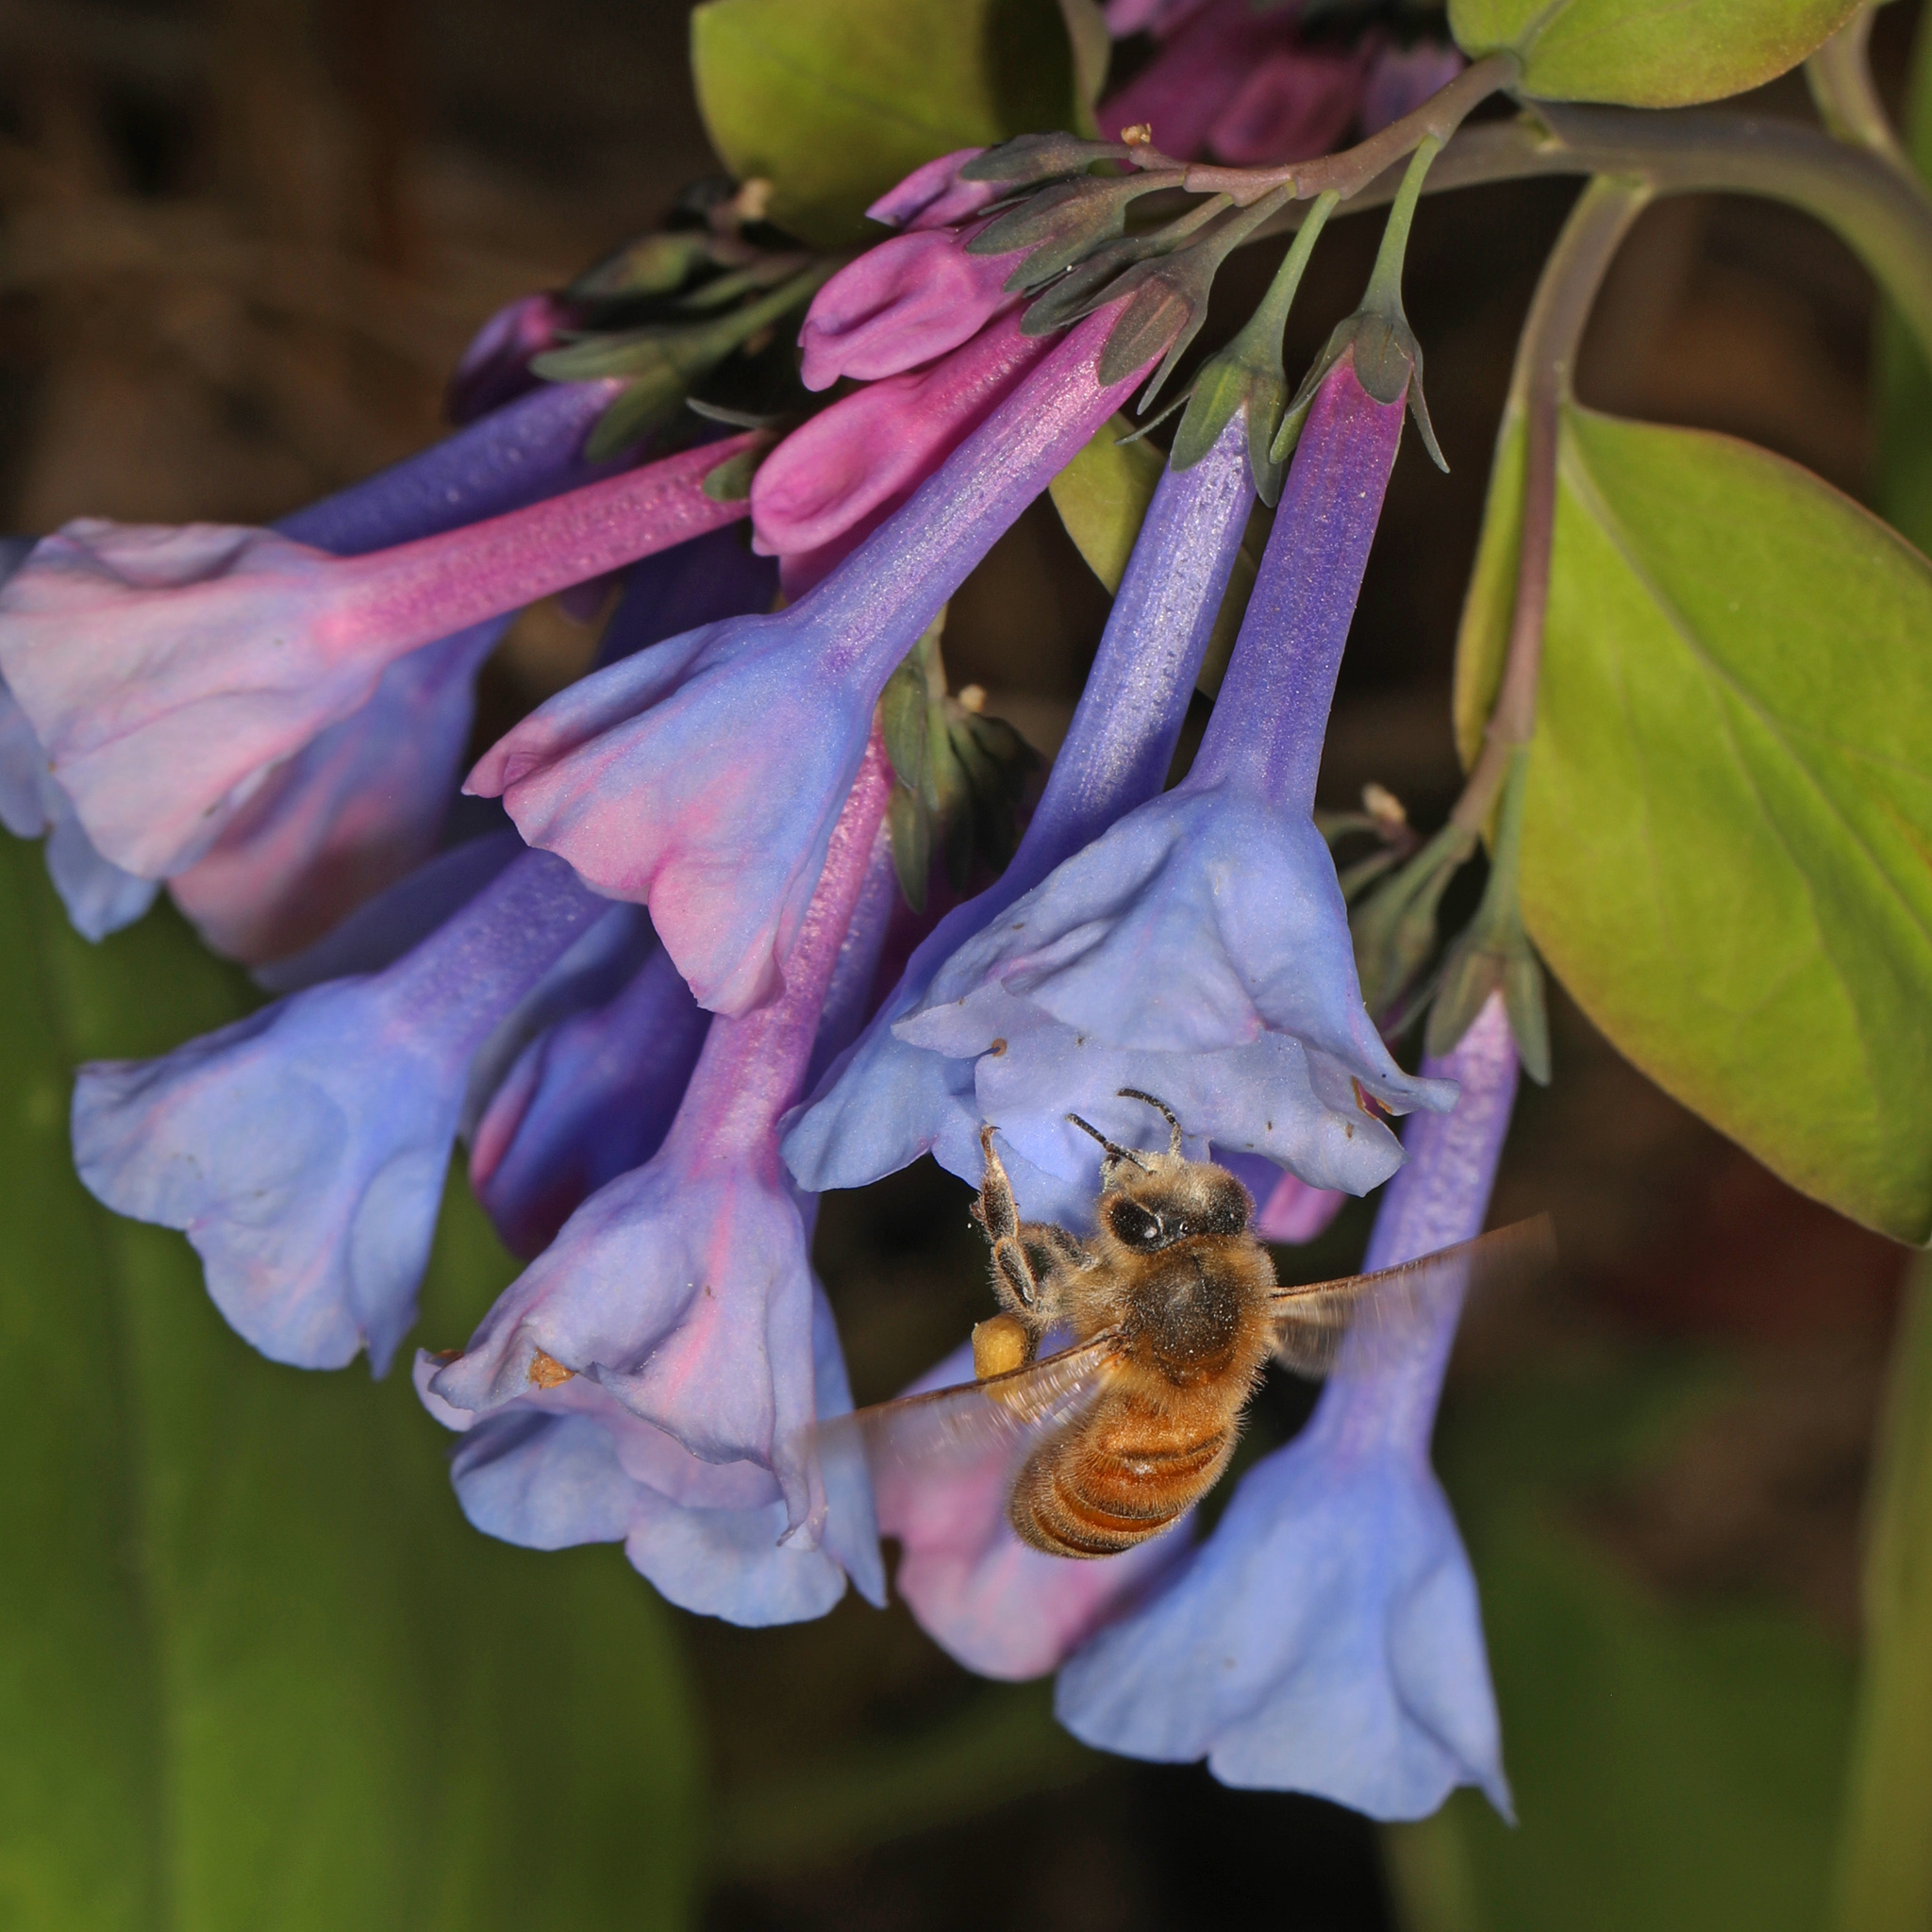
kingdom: Animalia
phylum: Arthropoda
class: Insecta
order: Hymenoptera
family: Apidae
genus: Apis
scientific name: Apis mellifera
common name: Honey bee
